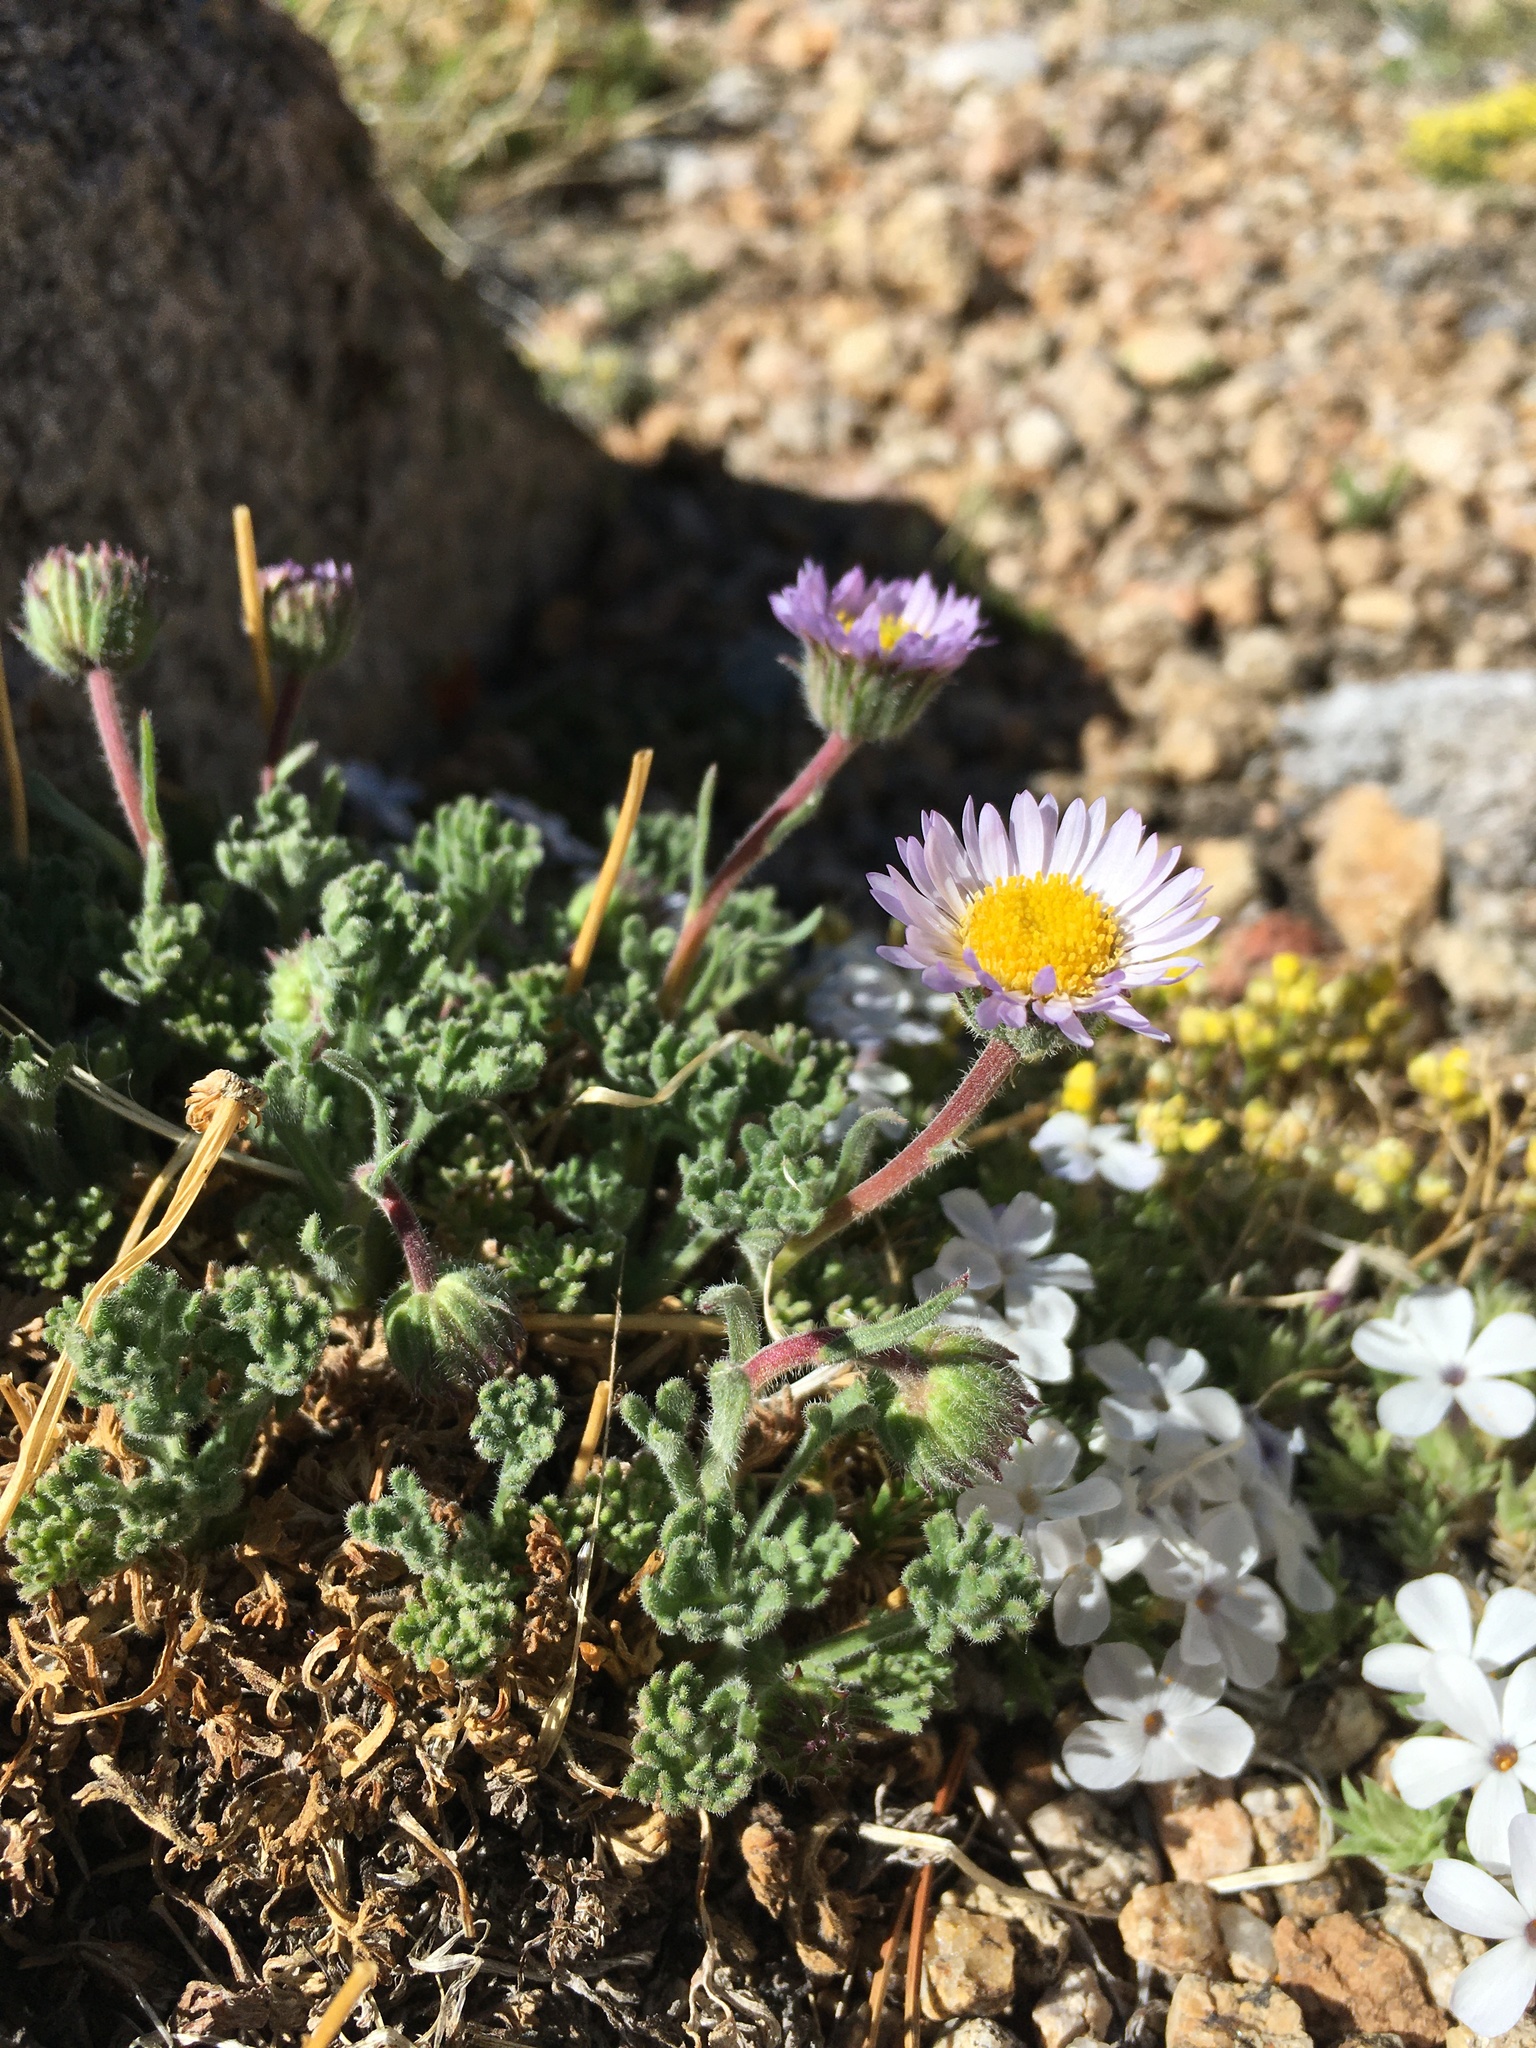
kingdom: Plantae
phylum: Tracheophyta
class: Magnoliopsida
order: Asterales
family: Asteraceae
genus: Erigeron
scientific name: Erigeron compositus
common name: Dwarf mountain fleabane
